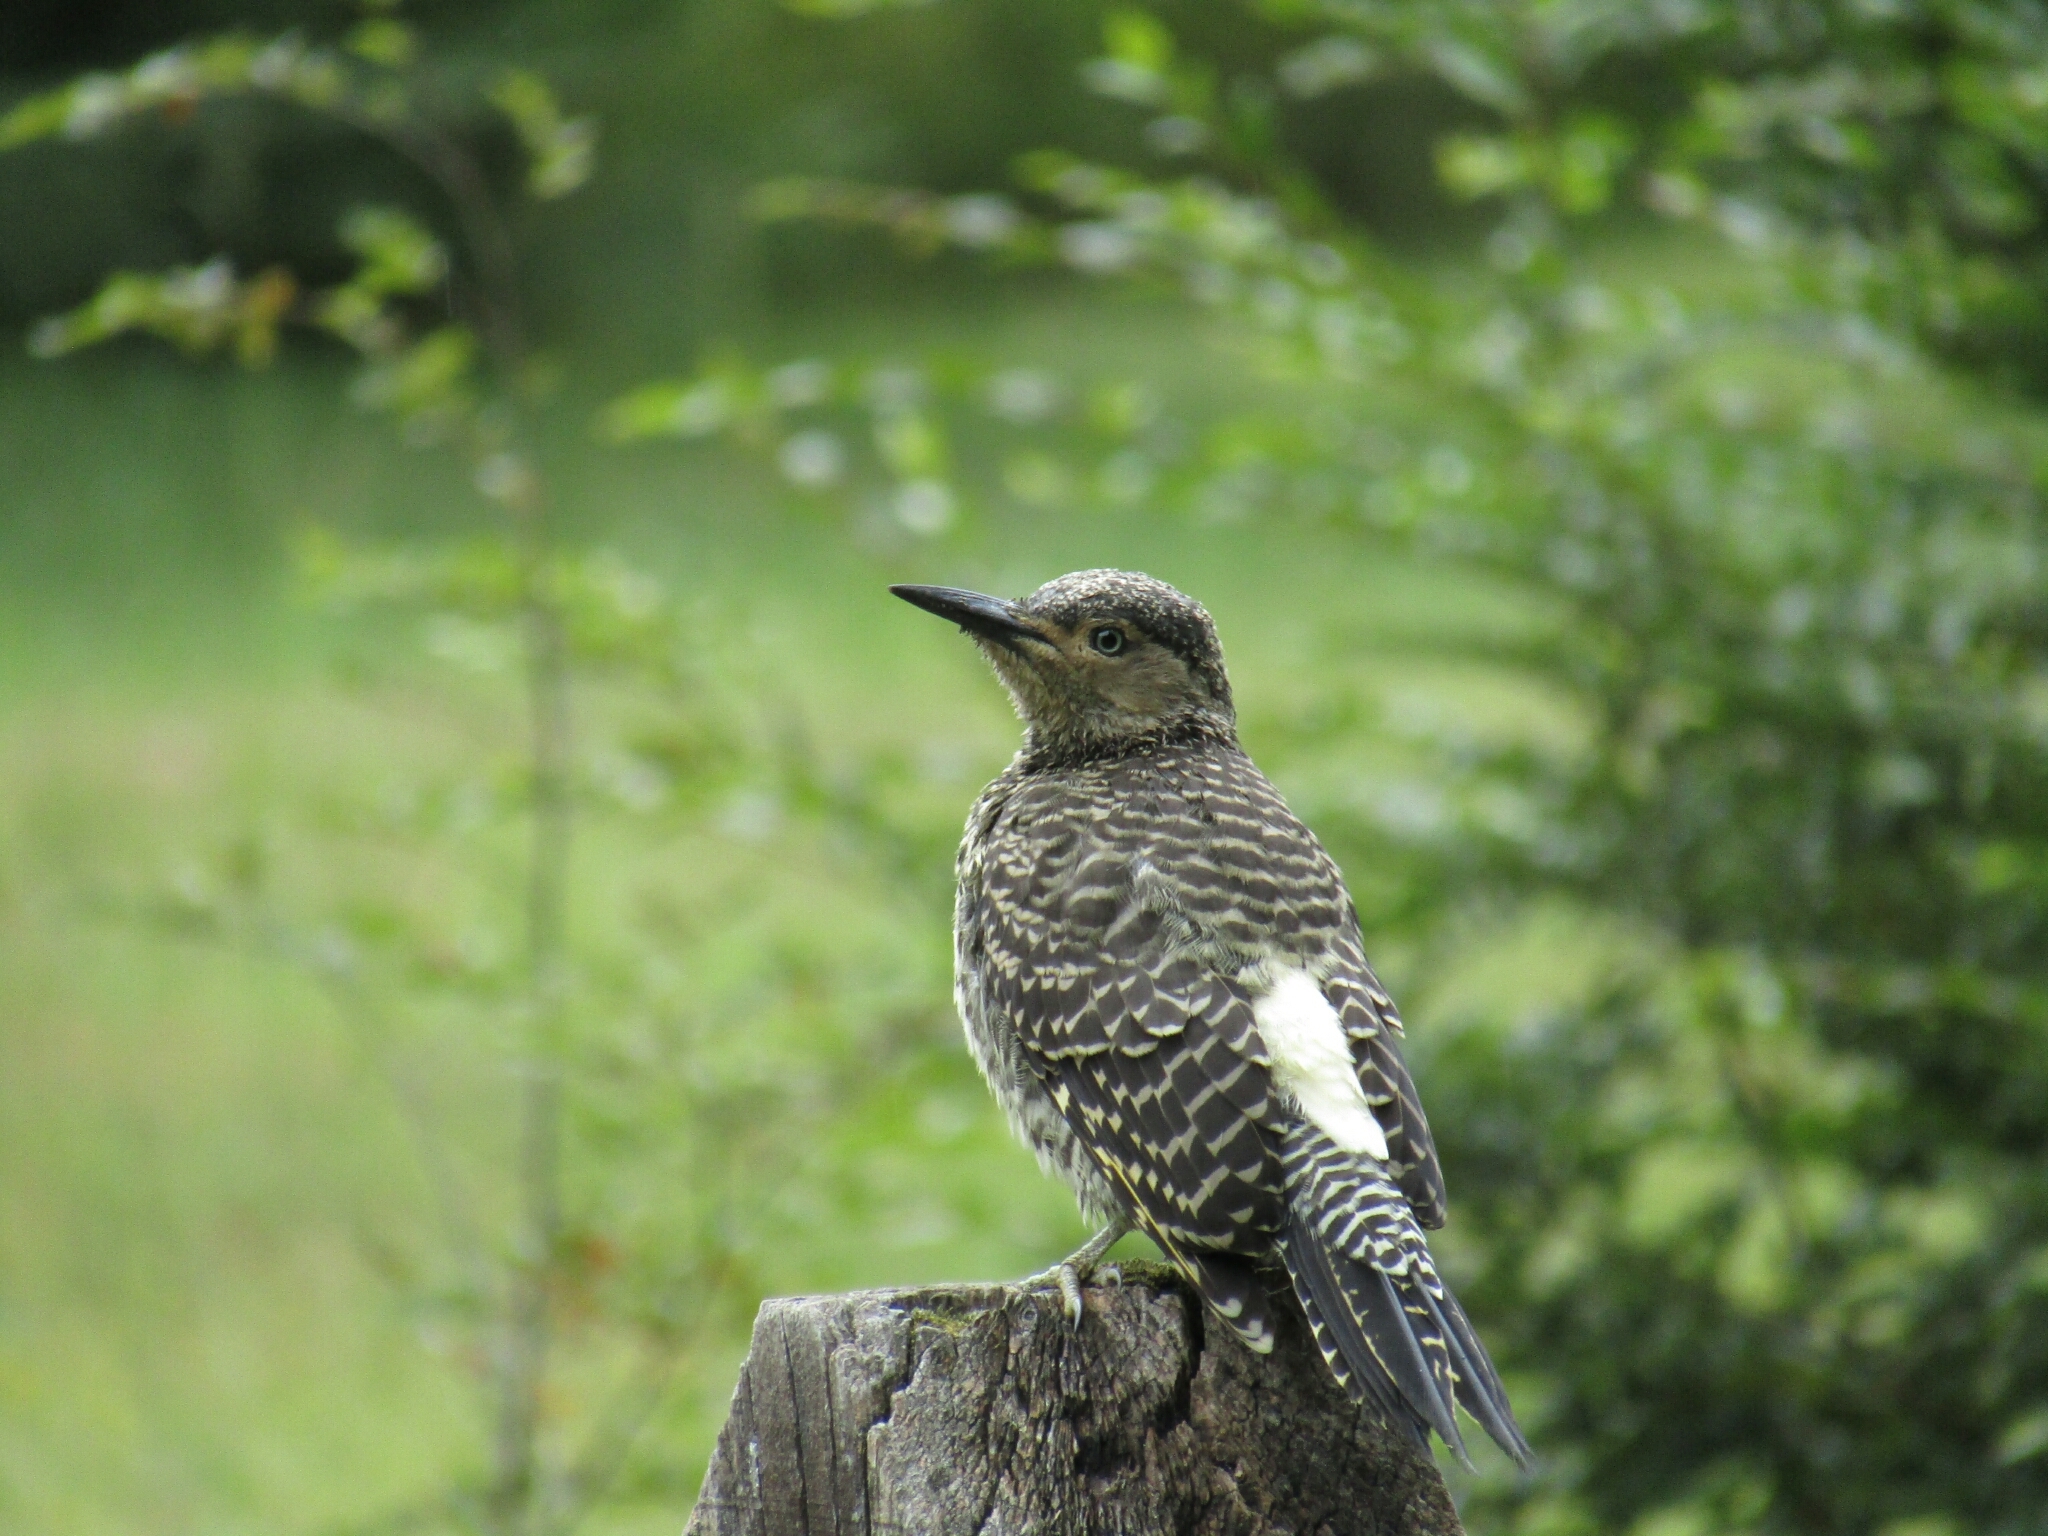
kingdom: Animalia
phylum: Chordata
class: Aves
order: Piciformes
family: Picidae
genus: Colaptes
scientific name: Colaptes pitius
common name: Chilean flicker
